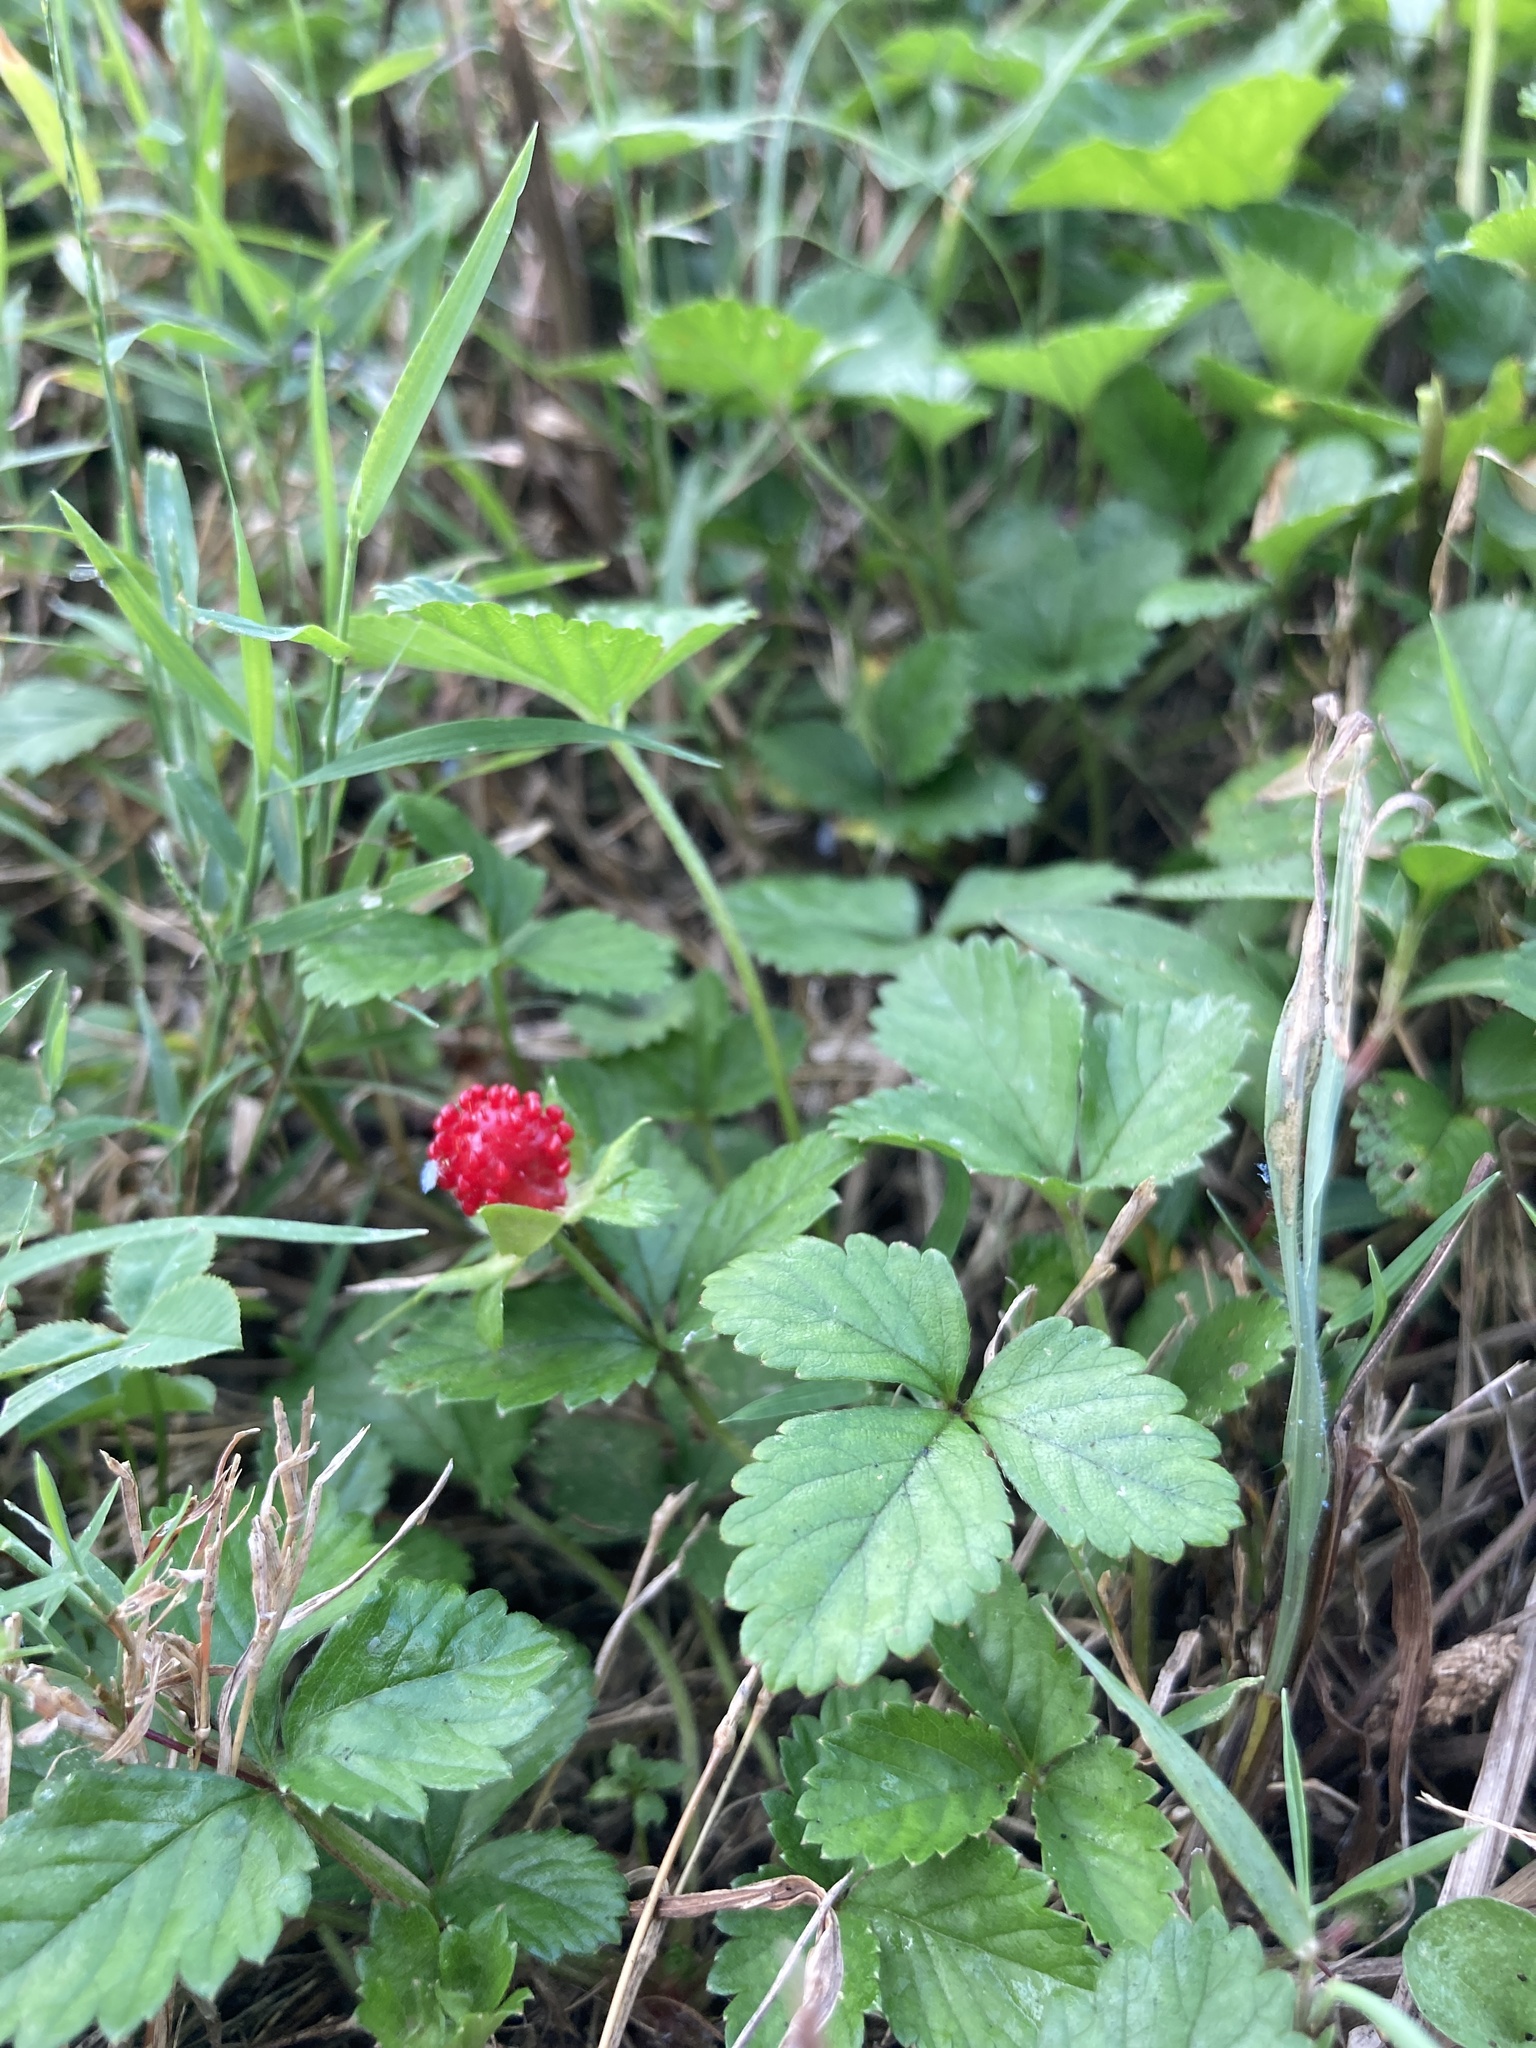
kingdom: Plantae
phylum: Tracheophyta
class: Magnoliopsida
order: Rosales
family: Rosaceae
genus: Potentilla
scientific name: Potentilla indica
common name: Yellow-flowered strawberry
